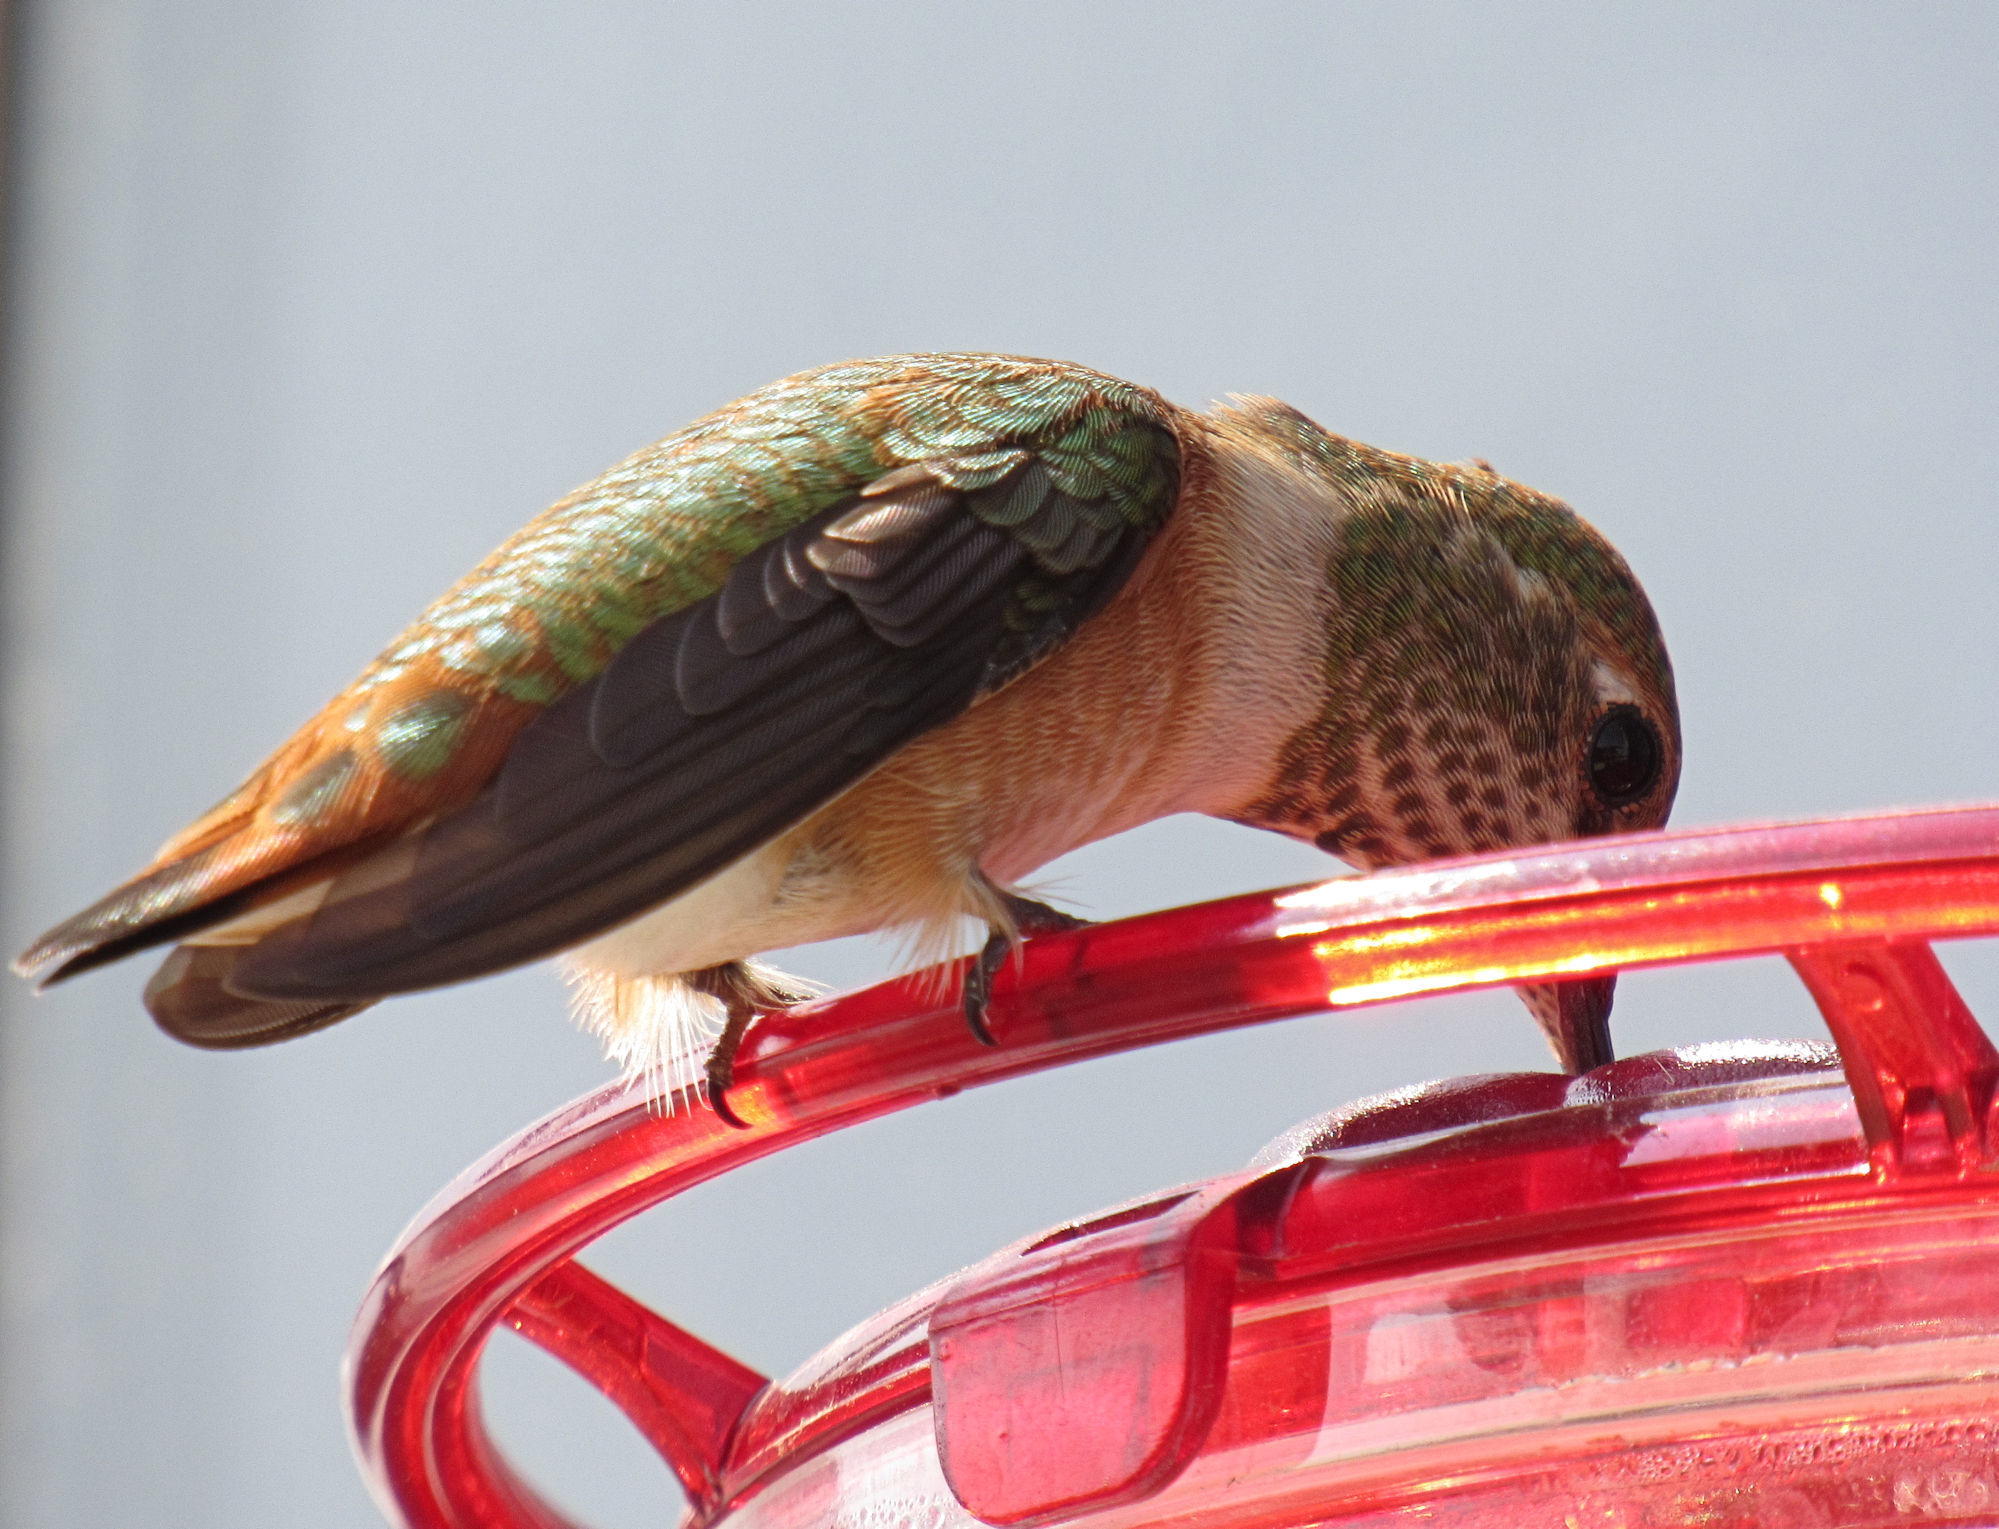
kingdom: Animalia
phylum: Chordata
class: Aves
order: Apodiformes
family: Trochilidae
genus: Selasphorus
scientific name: Selasphorus rufus
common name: Rufous hummingbird
